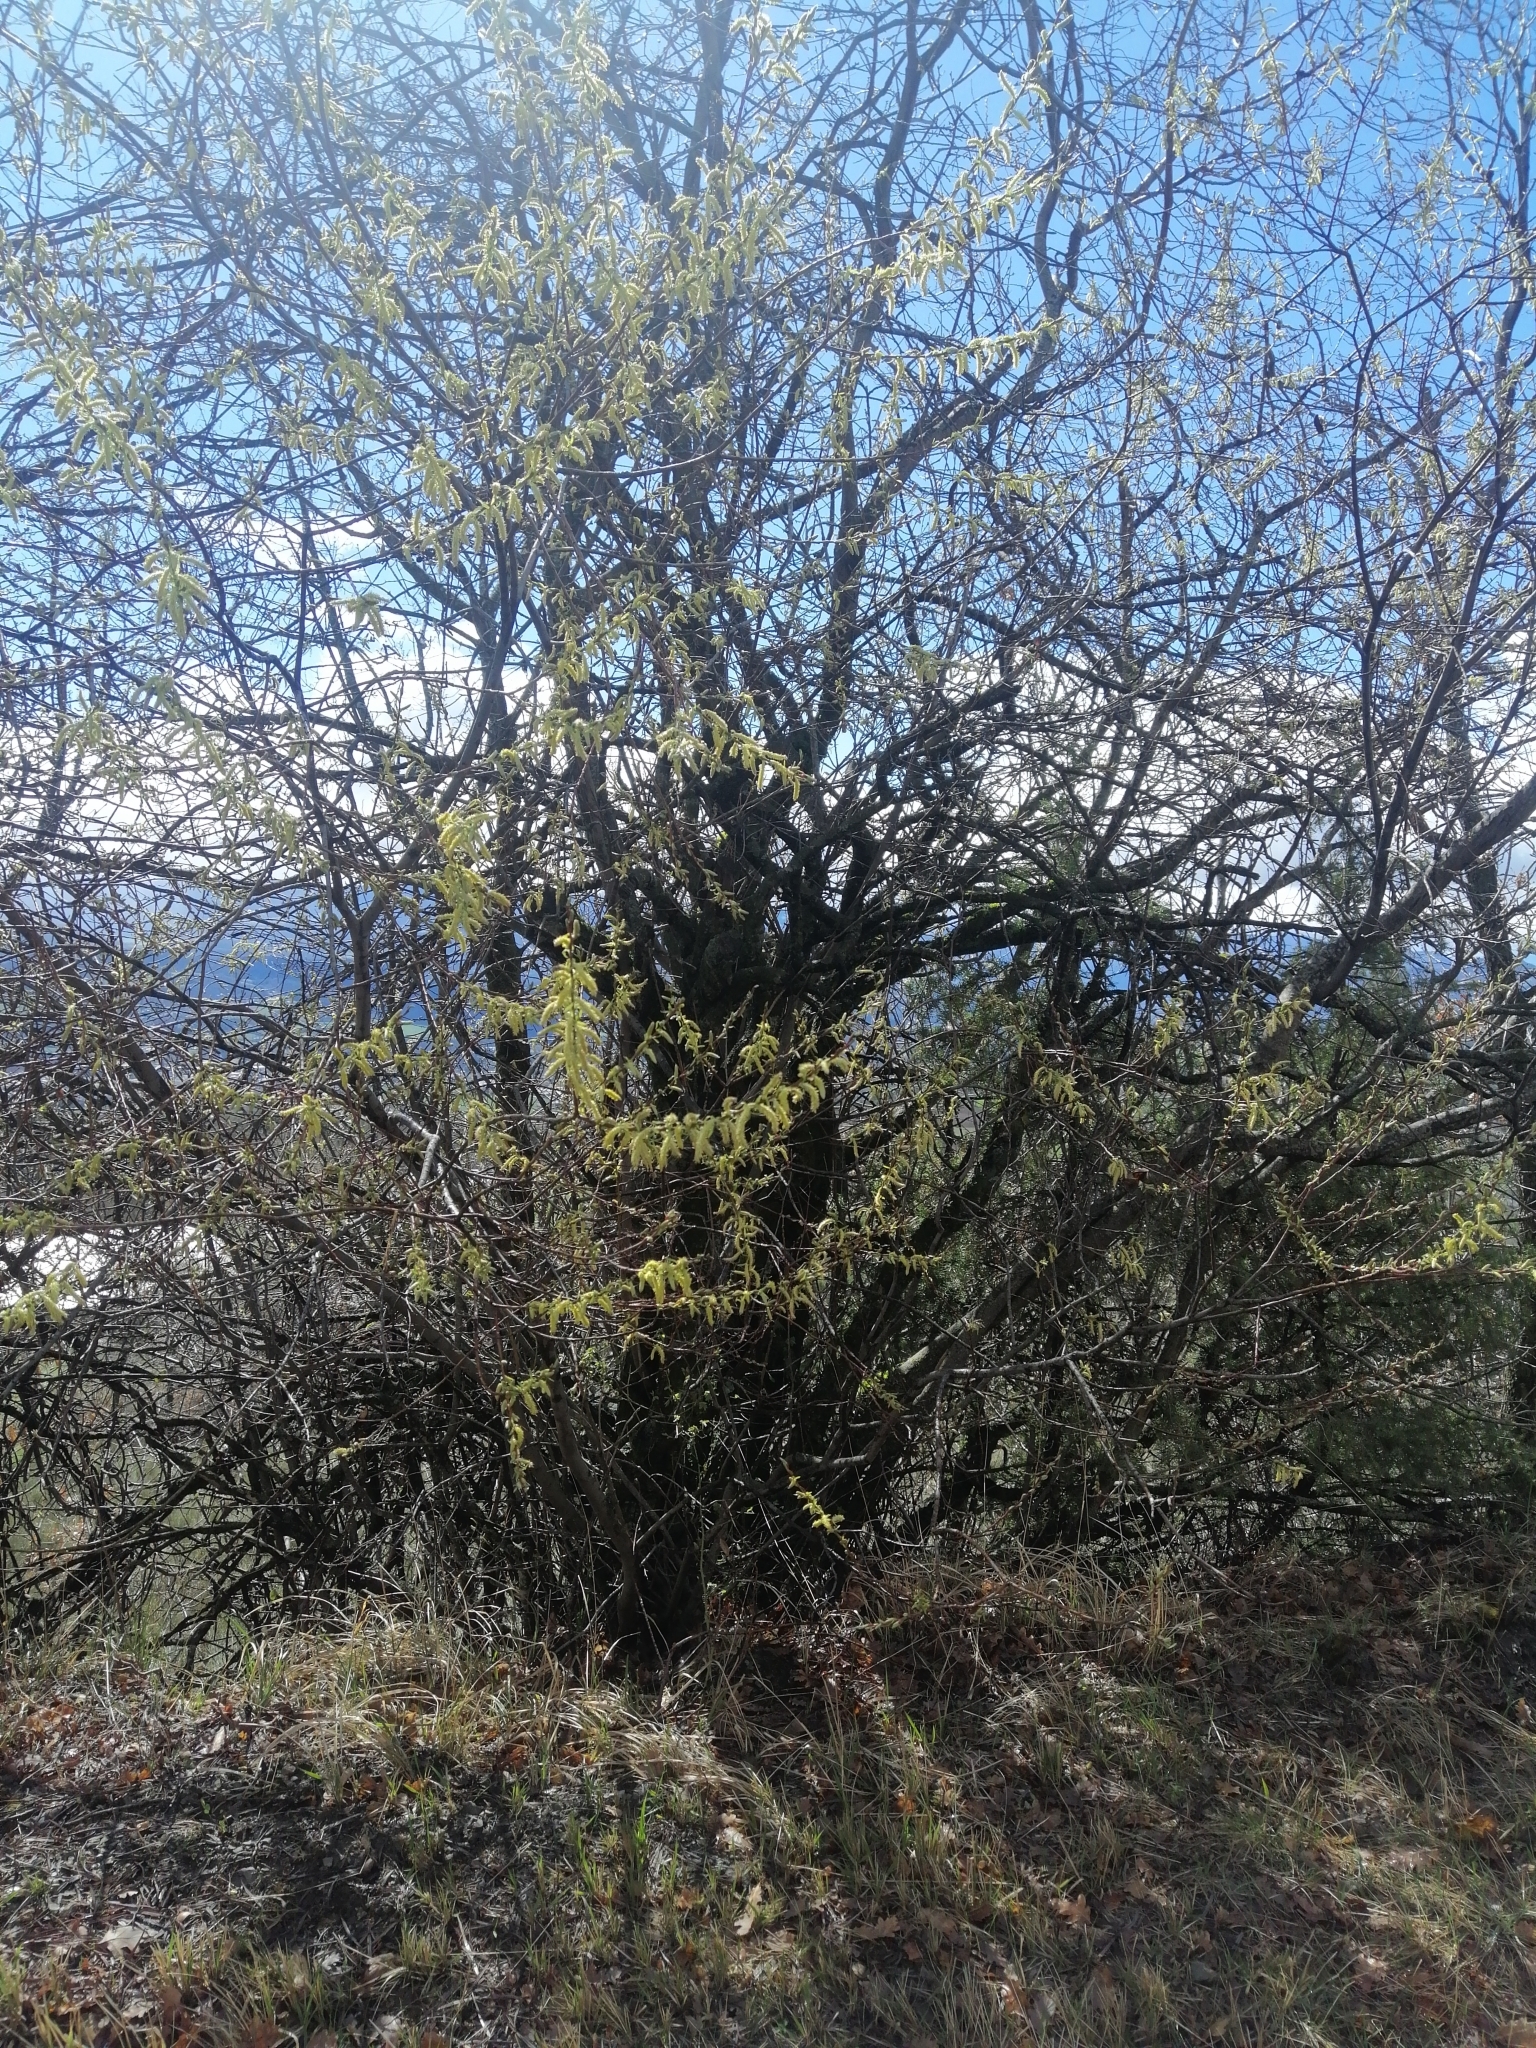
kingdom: Plantae
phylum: Tracheophyta
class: Magnoliopsida
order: Malpighiales
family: Salicaceae
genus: Salix
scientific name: Salix eleagnos
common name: Elaeagnus willow
